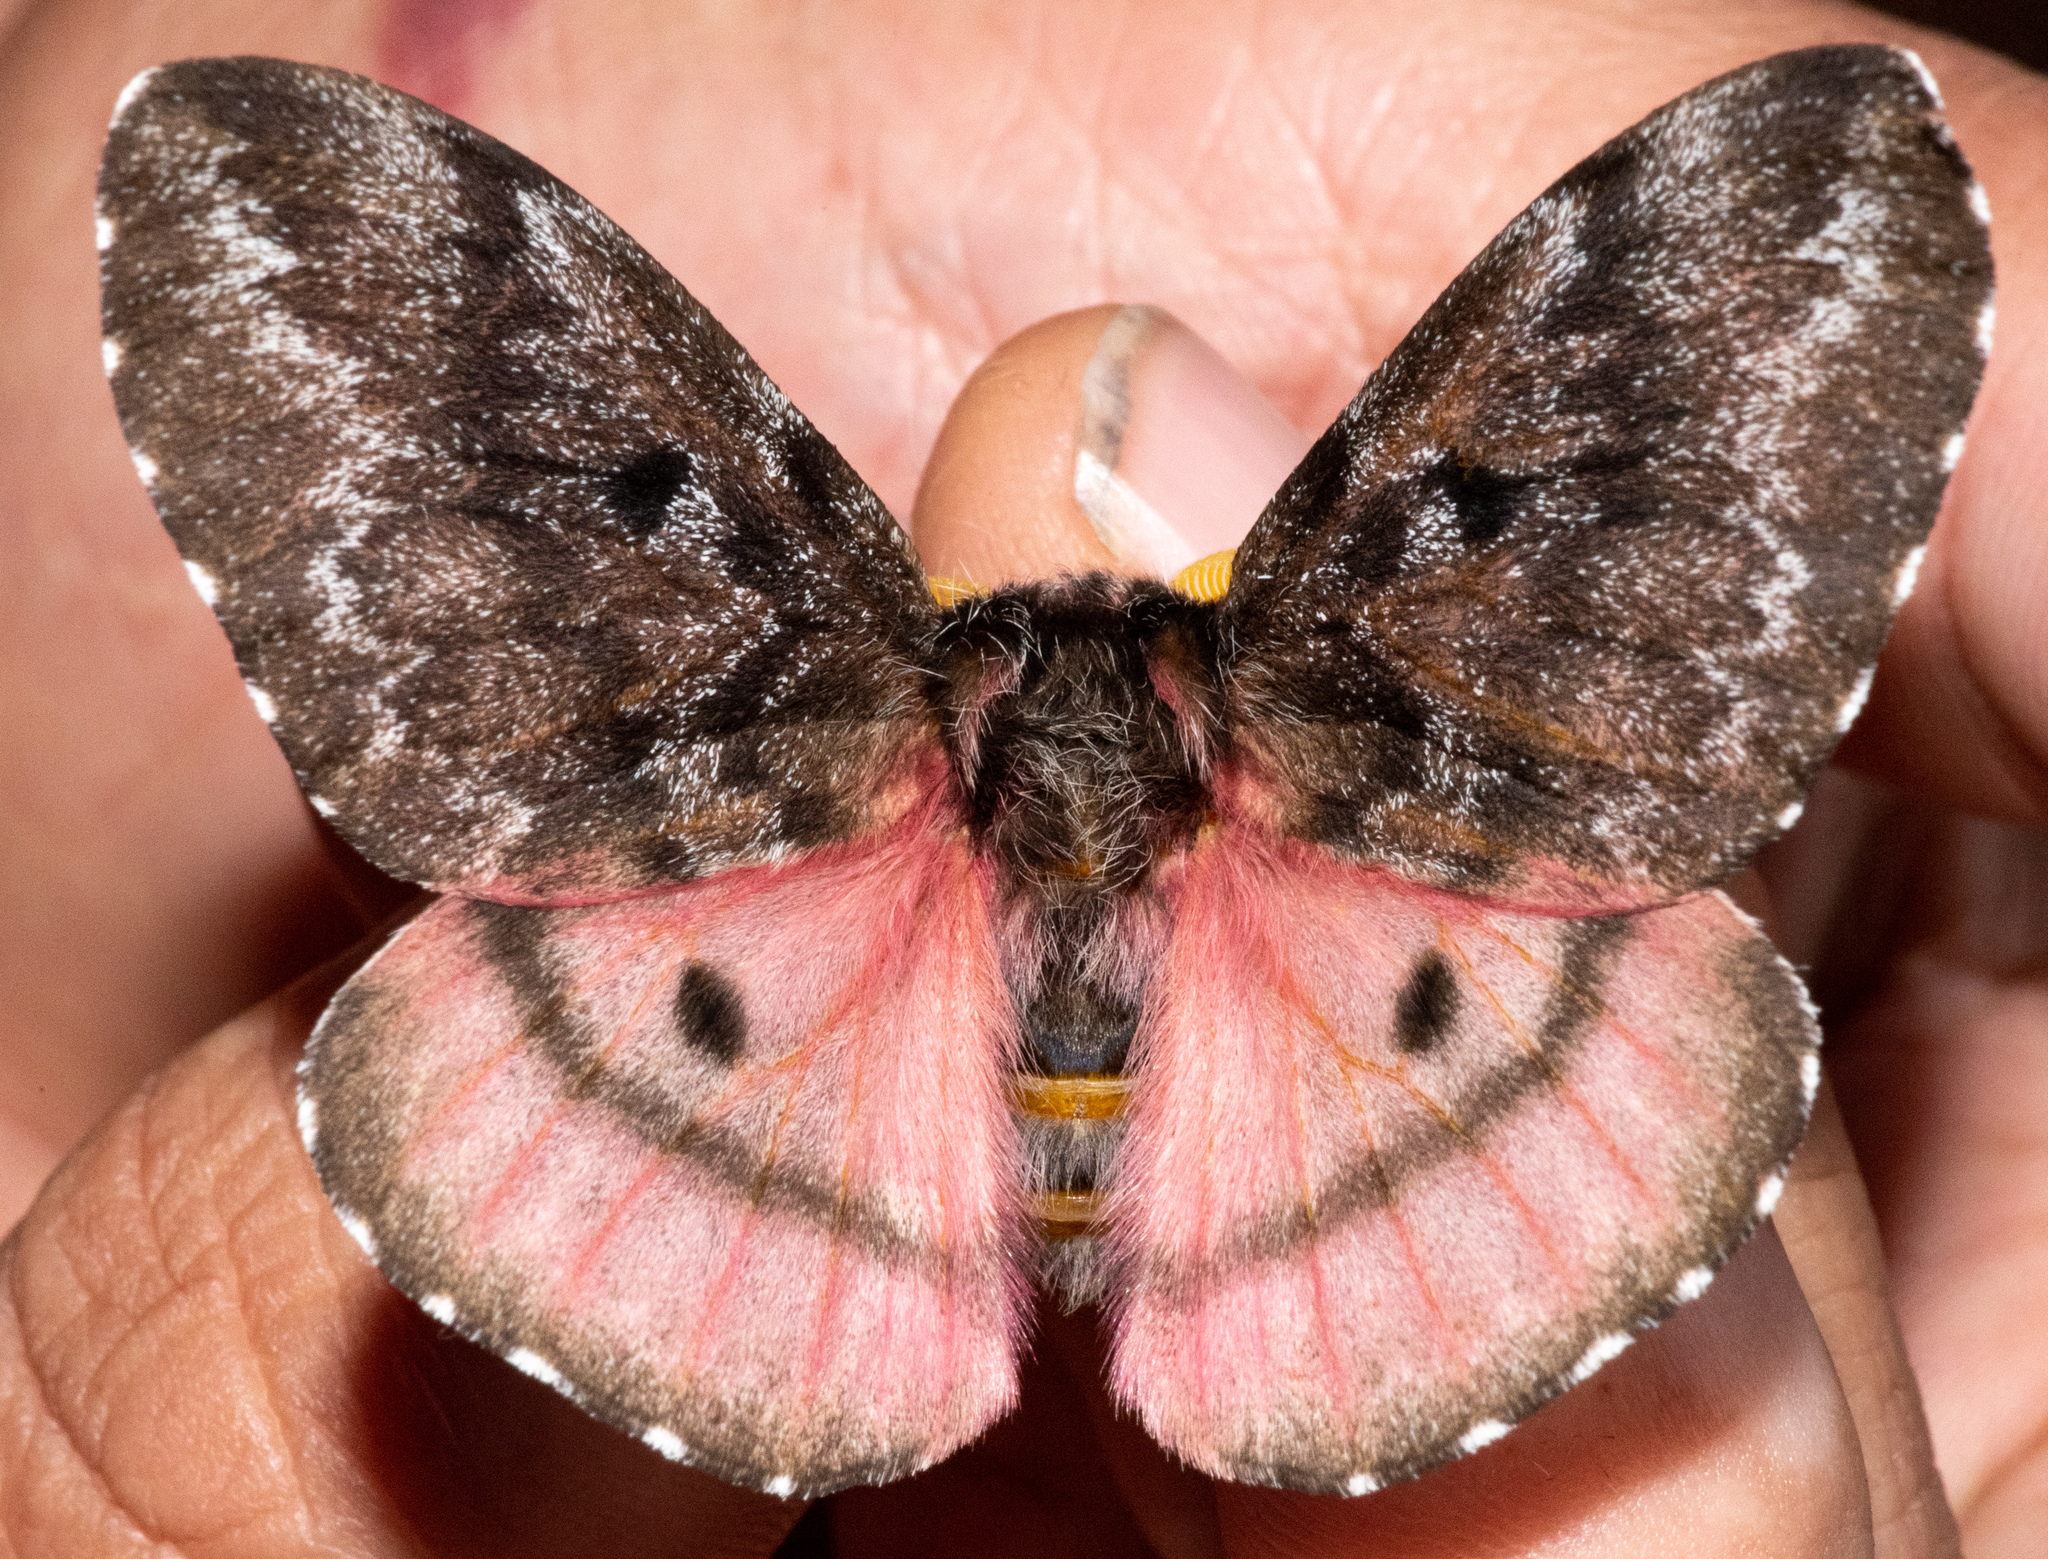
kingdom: Animalia
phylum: Arthropoda
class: Insecta
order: Lepidoptera
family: Saturniidae
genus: Coloradia
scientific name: Coloradia pandora
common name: Pandora pinemoth
